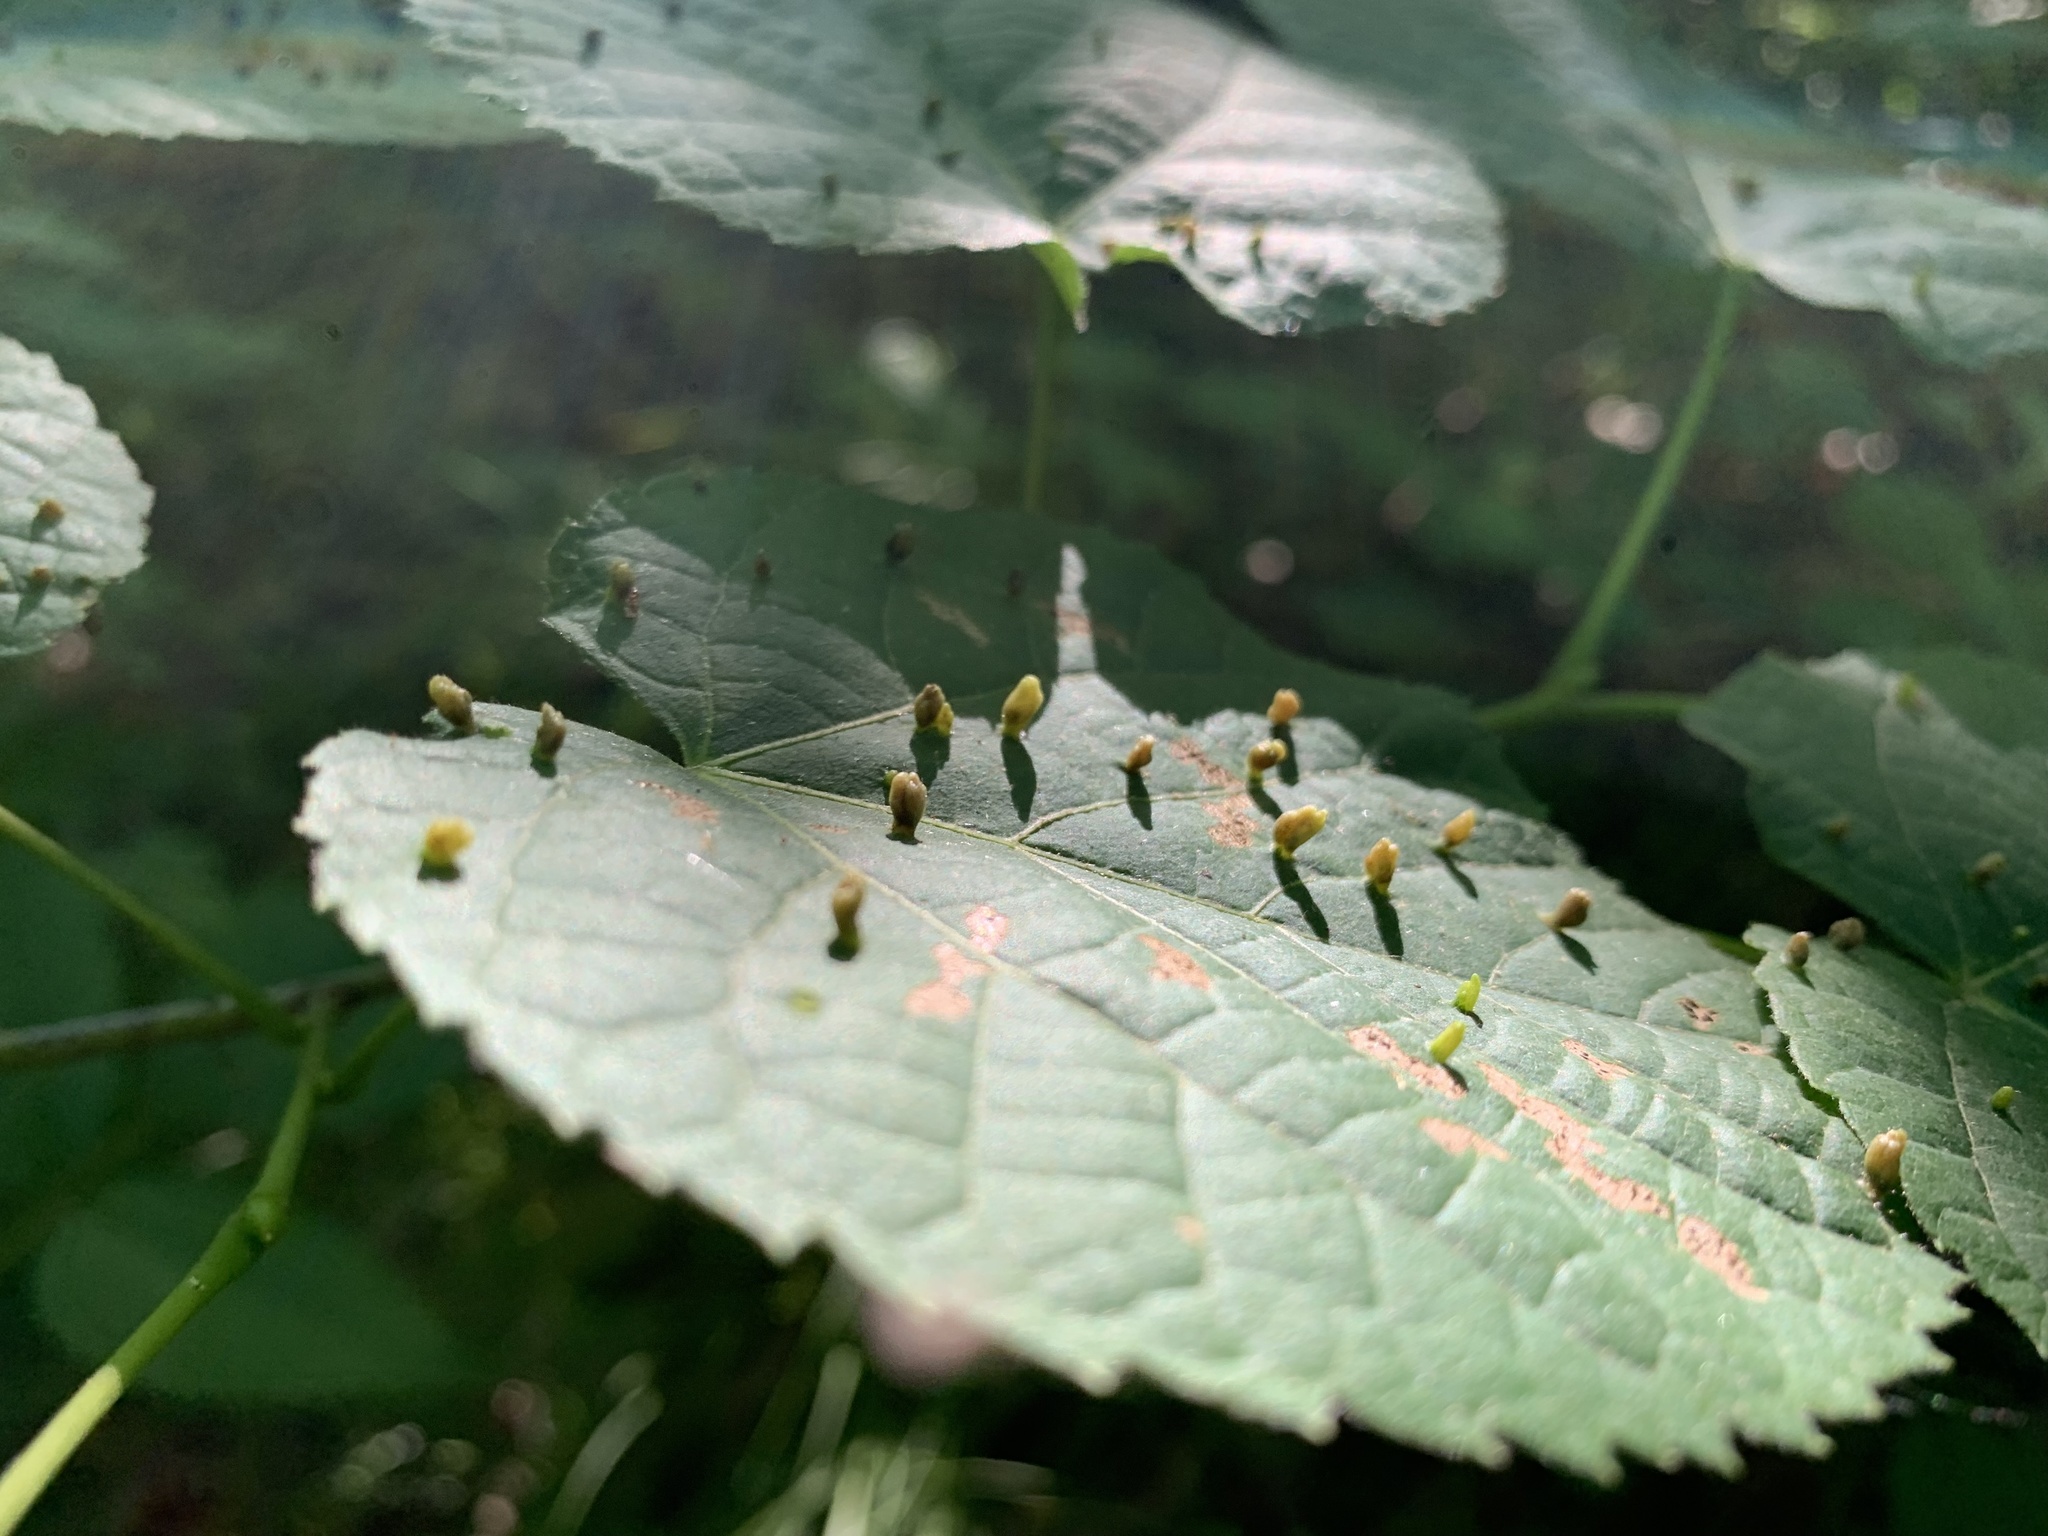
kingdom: Animalia
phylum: Arthropoda
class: Arachnida
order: Trombidiformes
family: Eriophyidae
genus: Eriophyes
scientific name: Eriophyes tiliae
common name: Red nail gall mite
